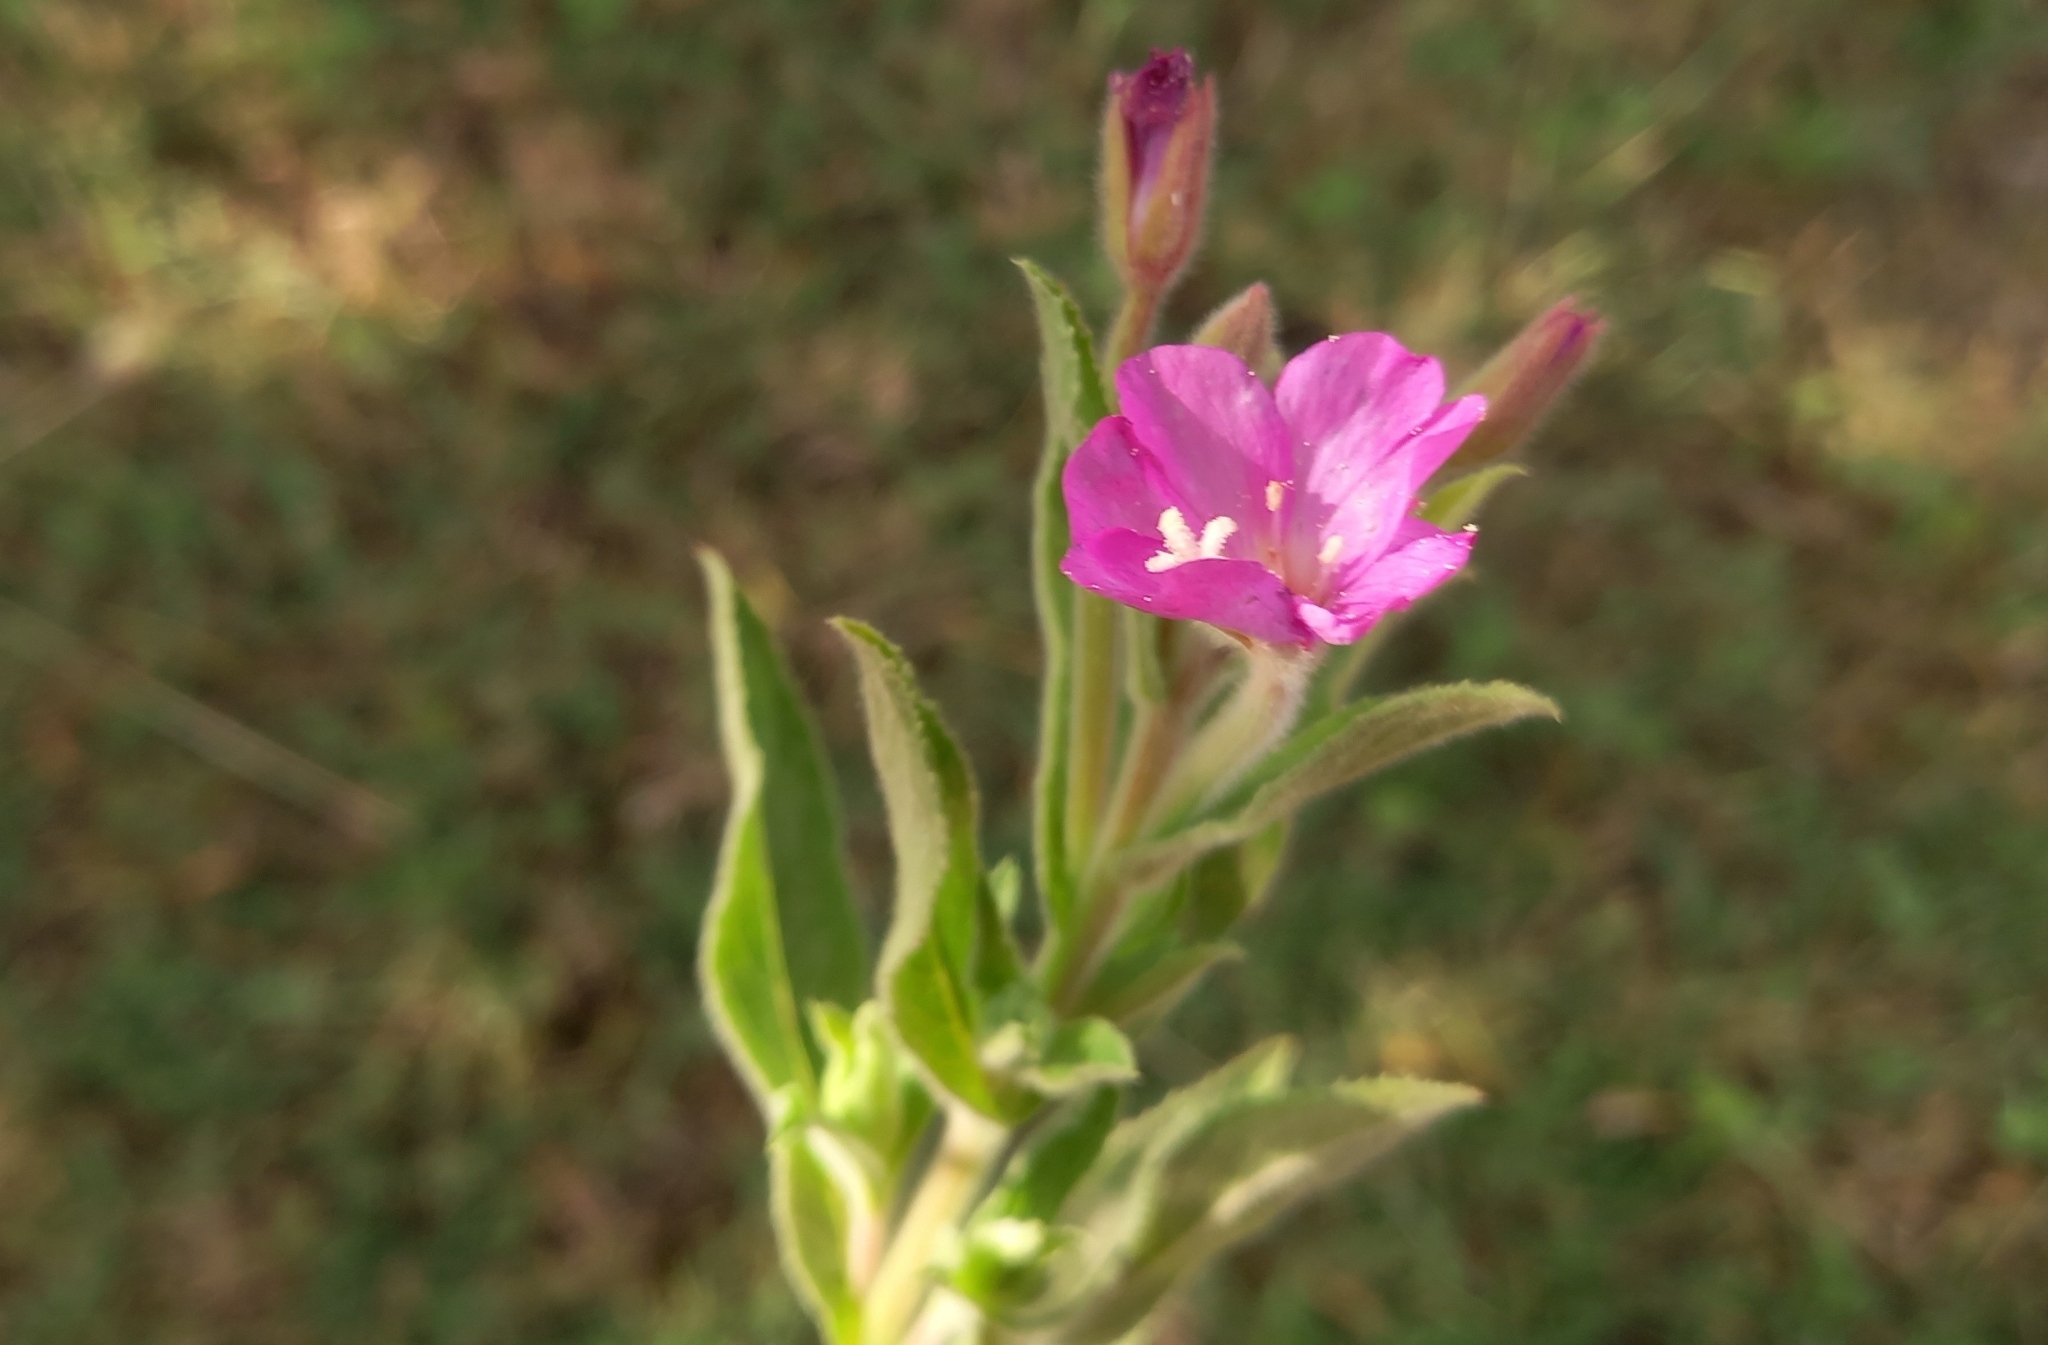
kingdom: Plantae
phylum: Tracheophyta
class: Magnoliopsida
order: Myrtales
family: Onagraceae
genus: Epilobium
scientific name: Epilobium hirsutum
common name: Great willowherb
